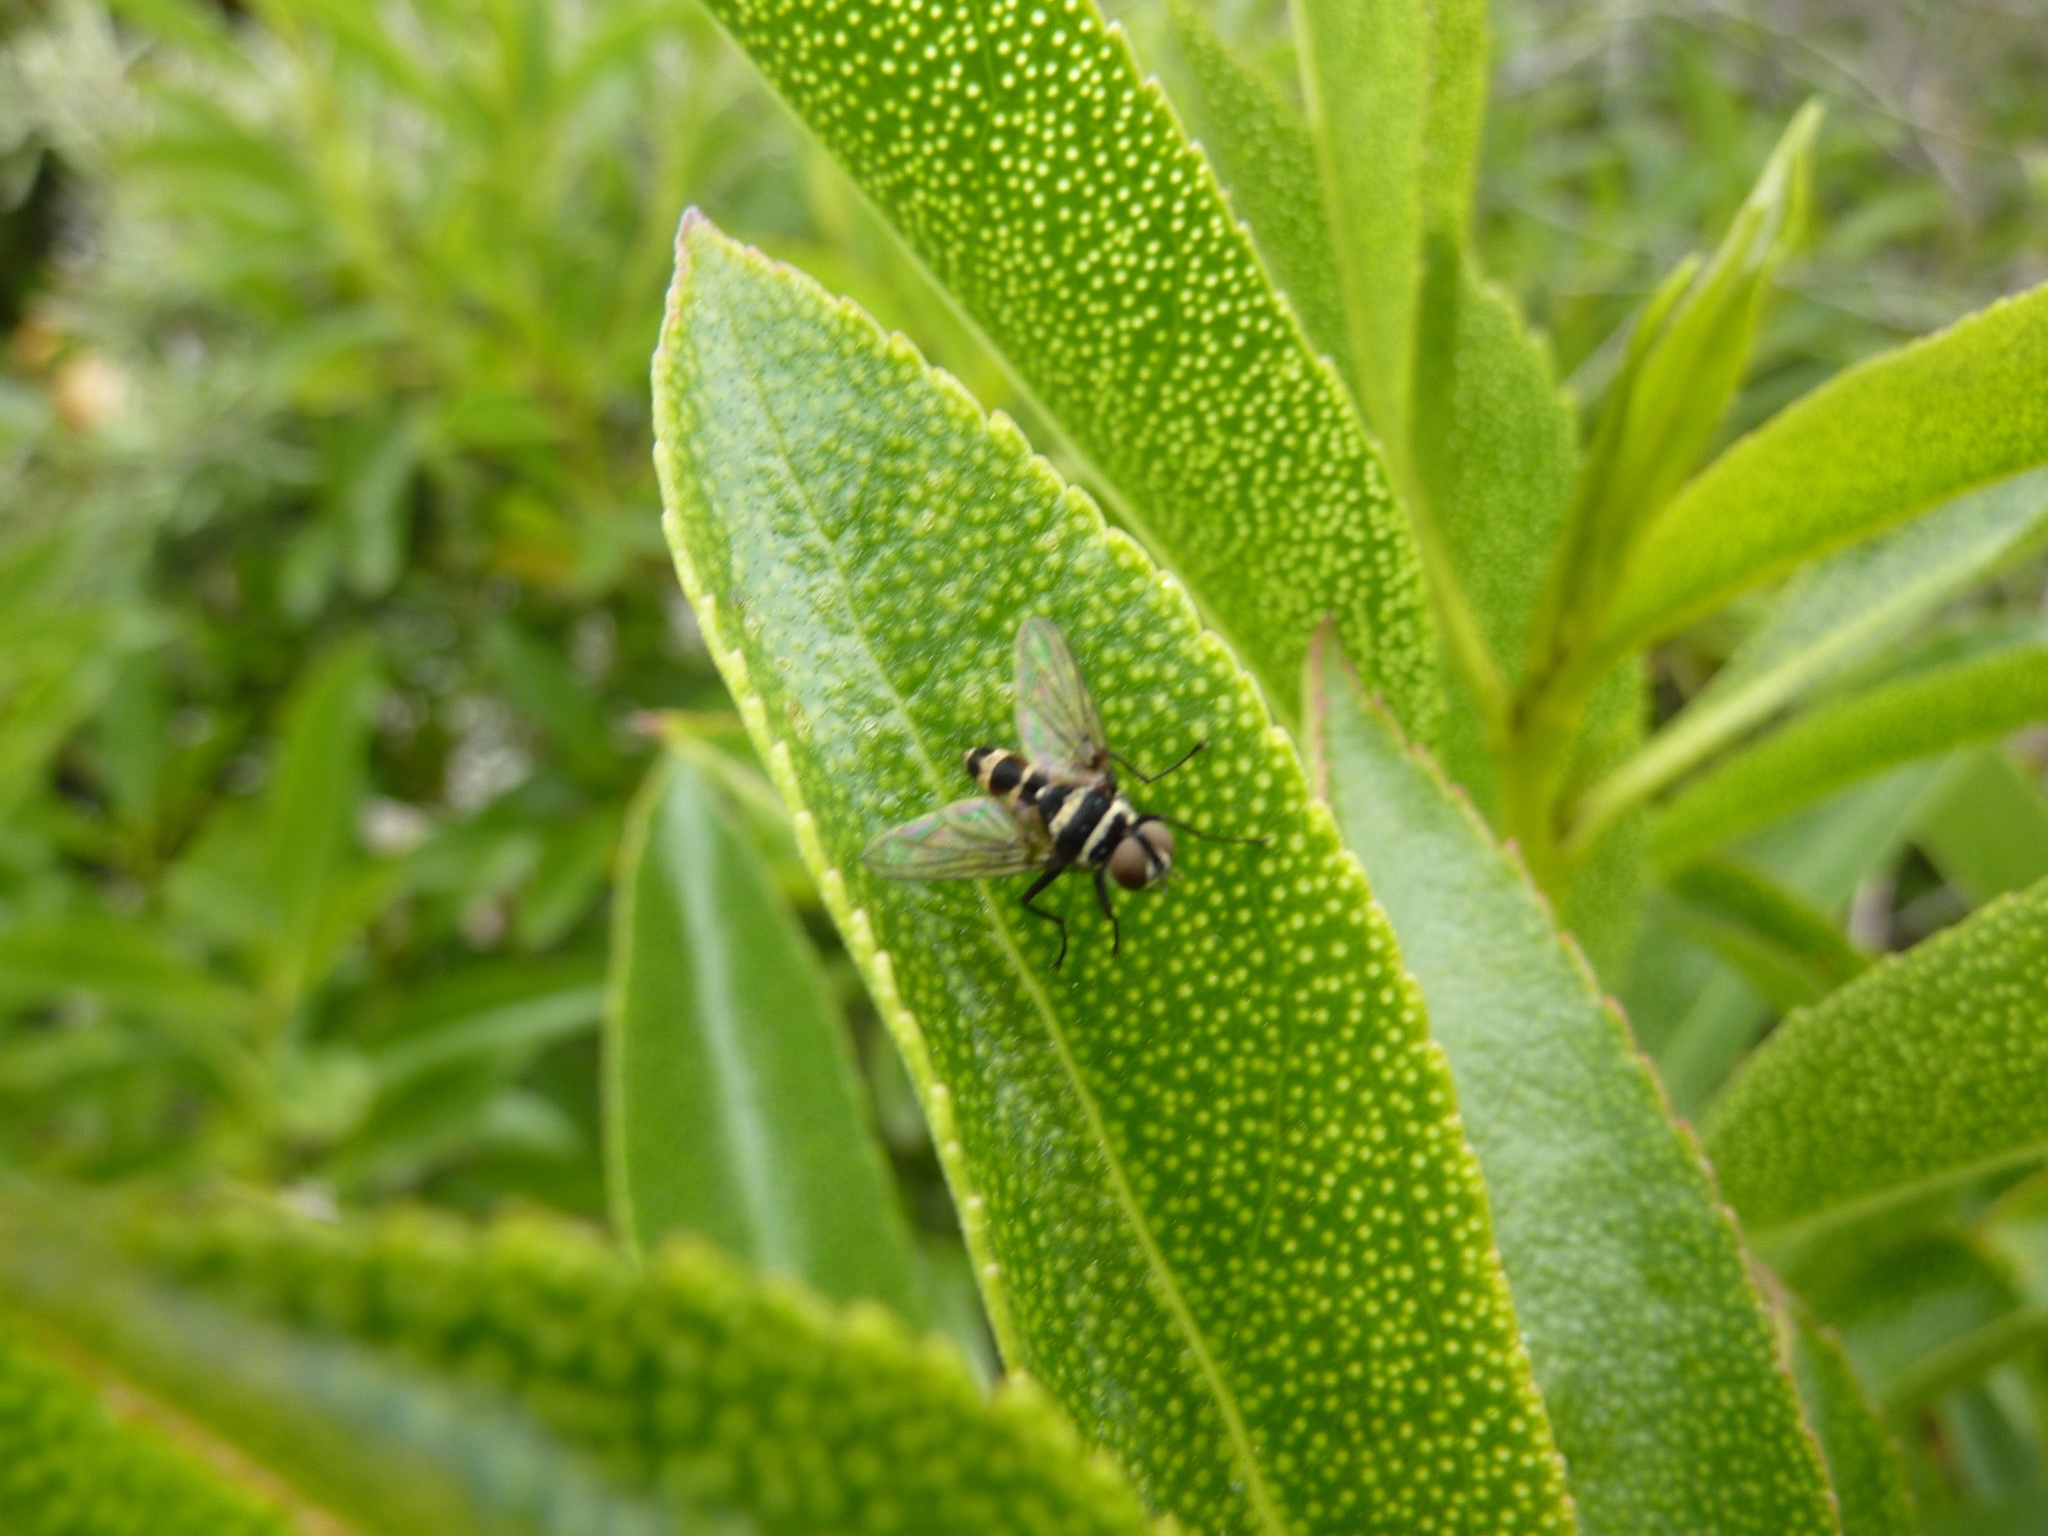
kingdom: Animalia
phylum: Arthropoda
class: Insecta
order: Diptera
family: Tachinidae
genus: Trigonospila
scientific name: Trigonospila brevifacies
